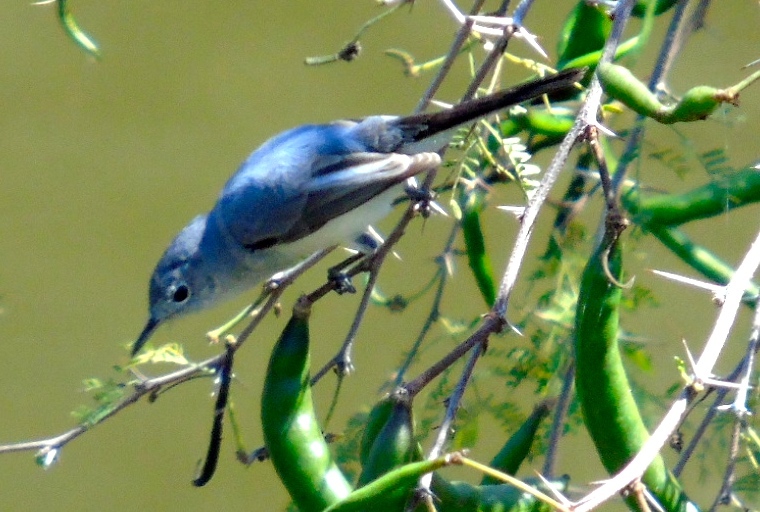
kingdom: Animalia
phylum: Chordata
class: Aves
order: Passeriformes
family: Polioptilidae
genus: Polioptila
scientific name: Polioptila caerulea
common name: Blue-gray gnatcatcher
